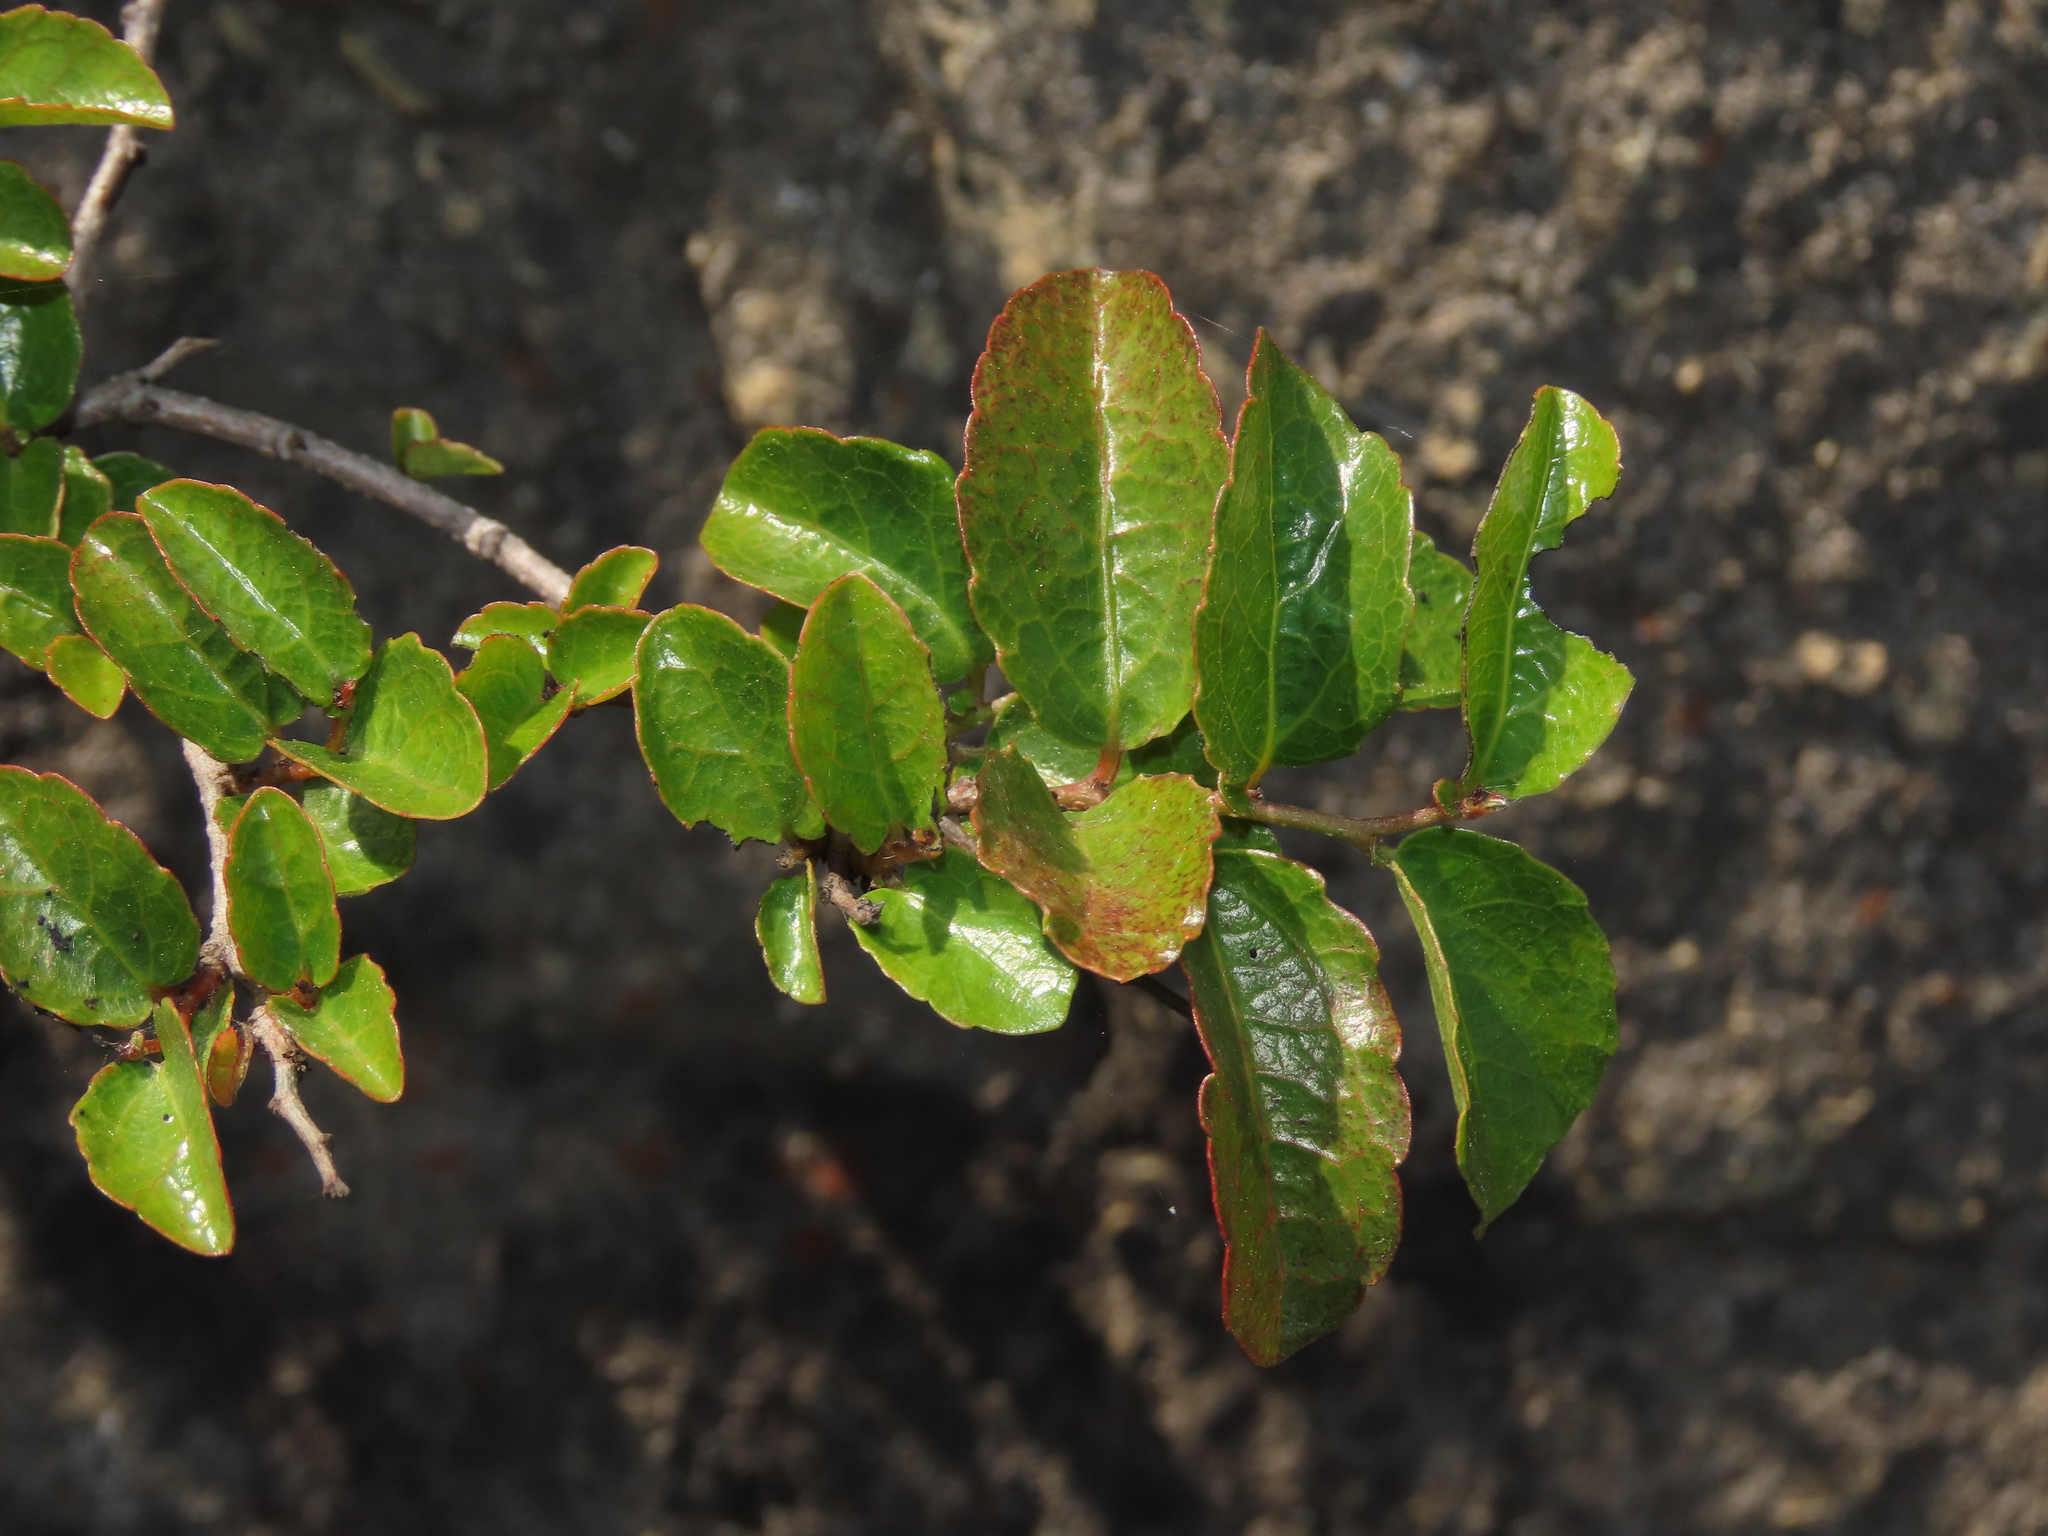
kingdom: Plantae
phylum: Tracheophyta
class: Magnoliopsida
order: Malpighiales
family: Salicaceae
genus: Azara
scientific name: Azara petiolaris
